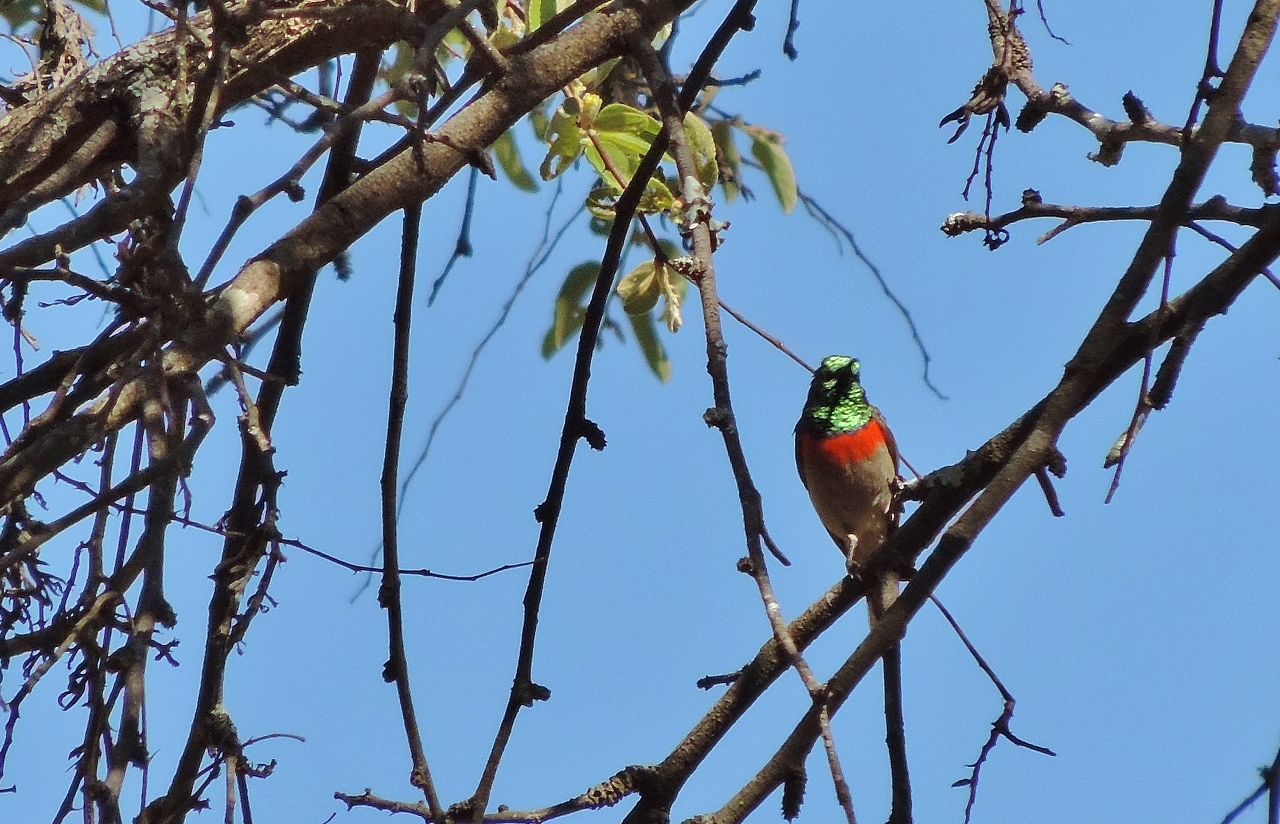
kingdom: Animalia
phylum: Chordata
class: Aves
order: Passeriformes
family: Nectariniidae
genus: Cinnyris
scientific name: Cinnyris manoensis
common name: Eastern miombo sunbird
